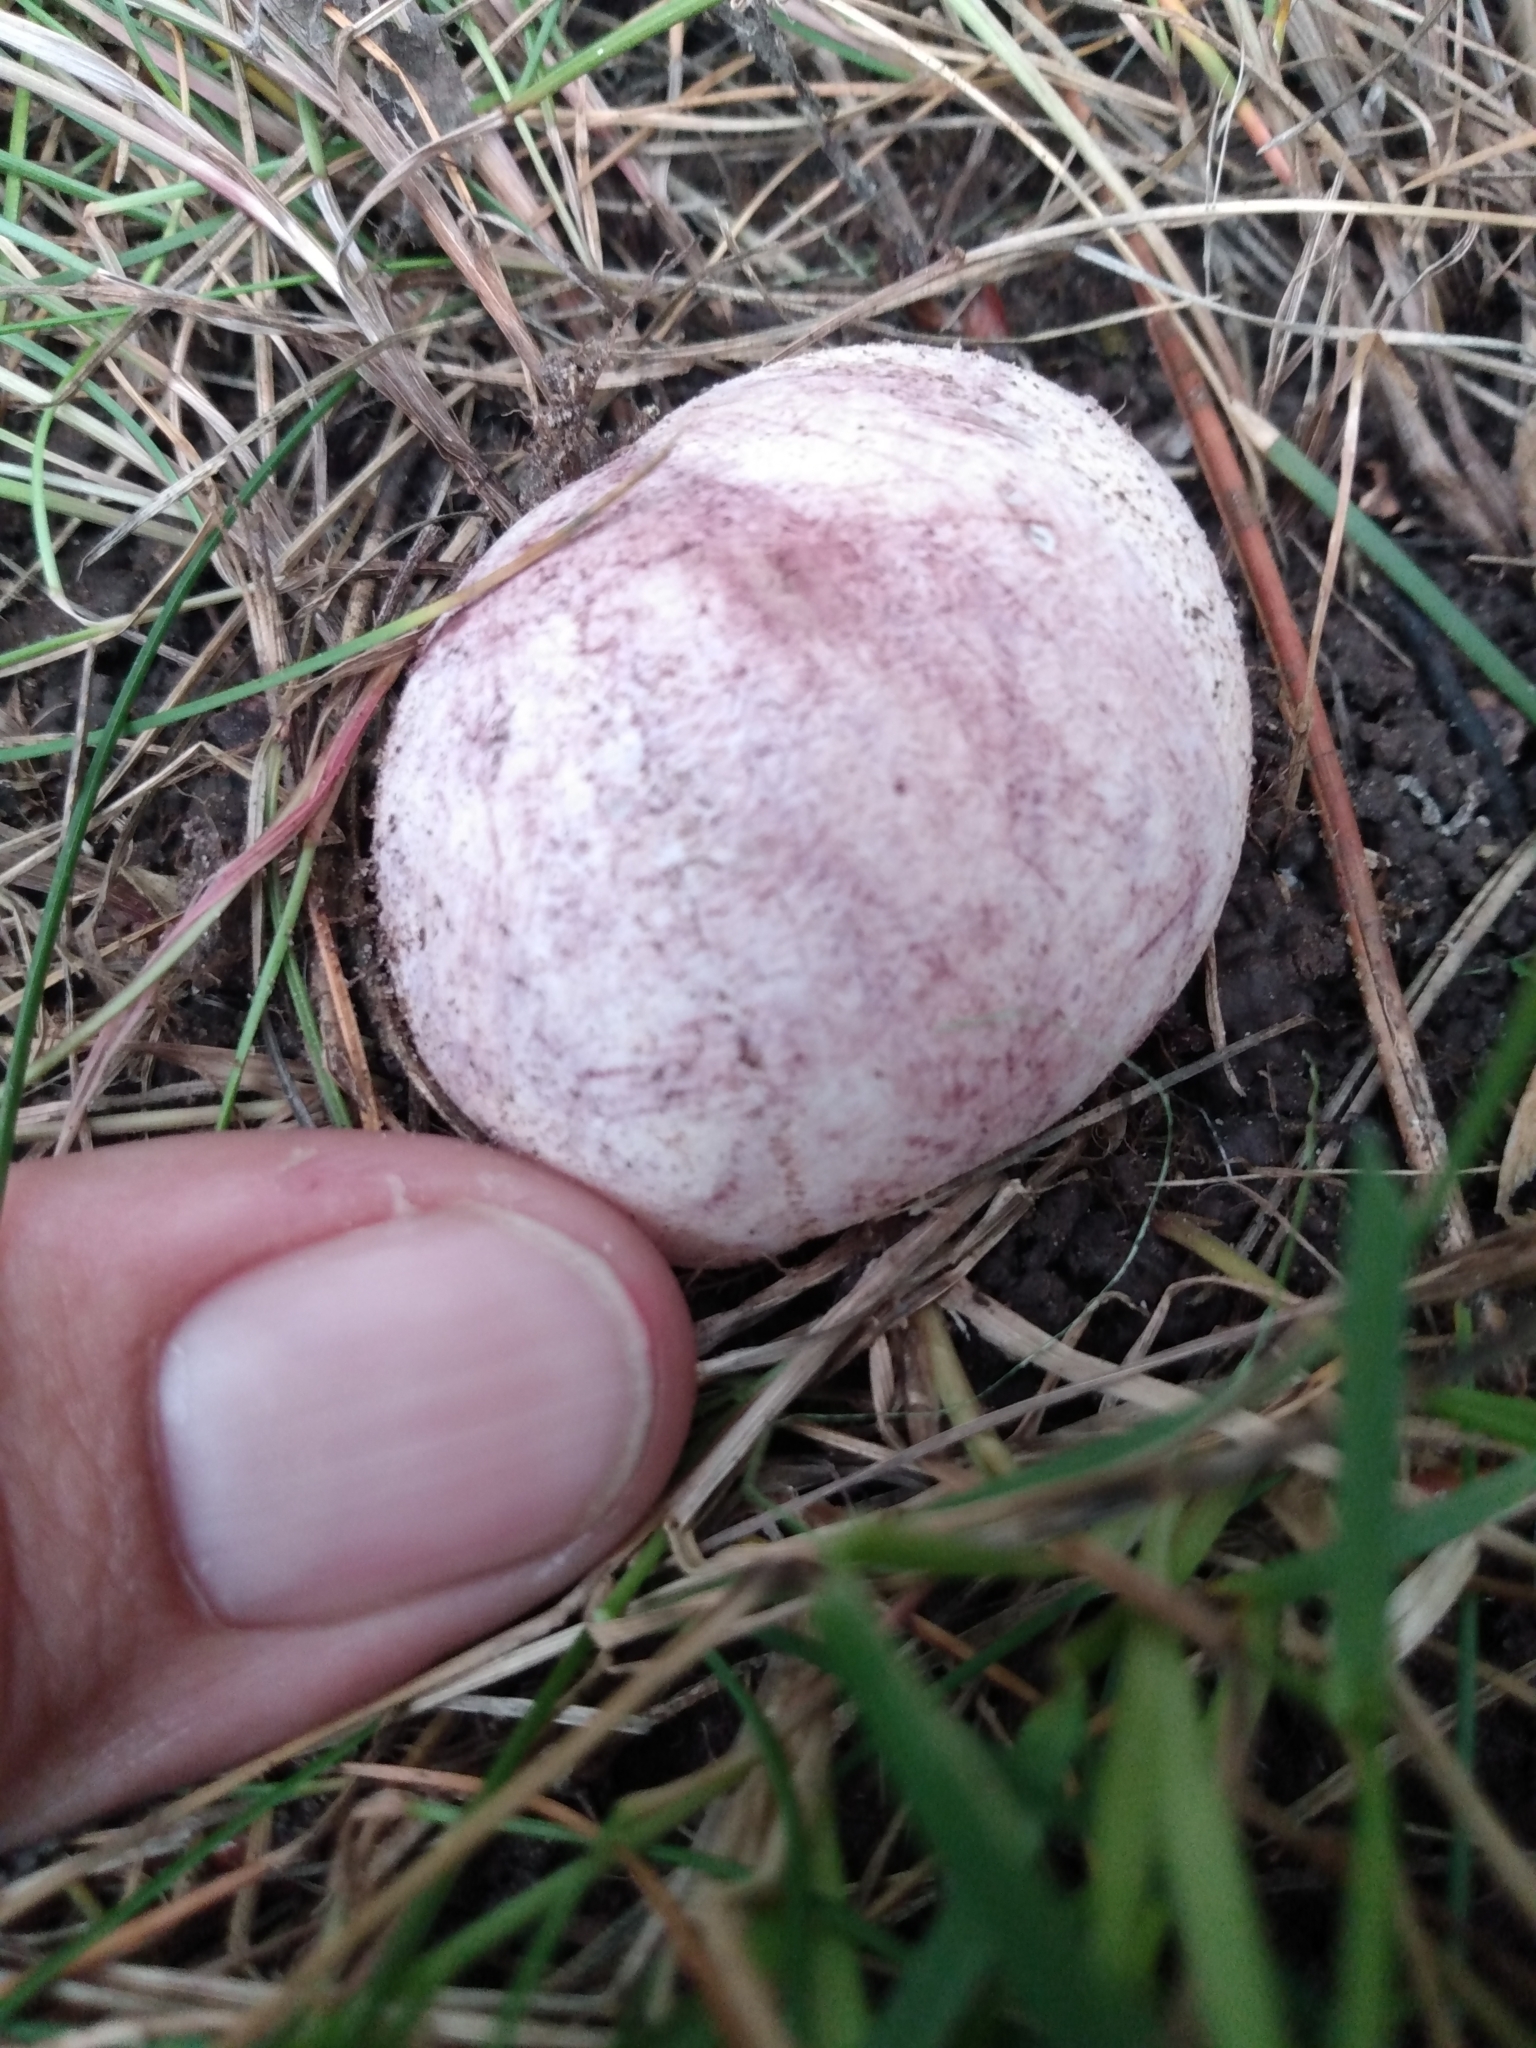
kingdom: Fungi
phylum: Basidiomycota
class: Agaricomycetes
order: Phallales
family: Phallaceae
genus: Phallus
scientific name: Phallus hadriani
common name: Sand stinkhorn
